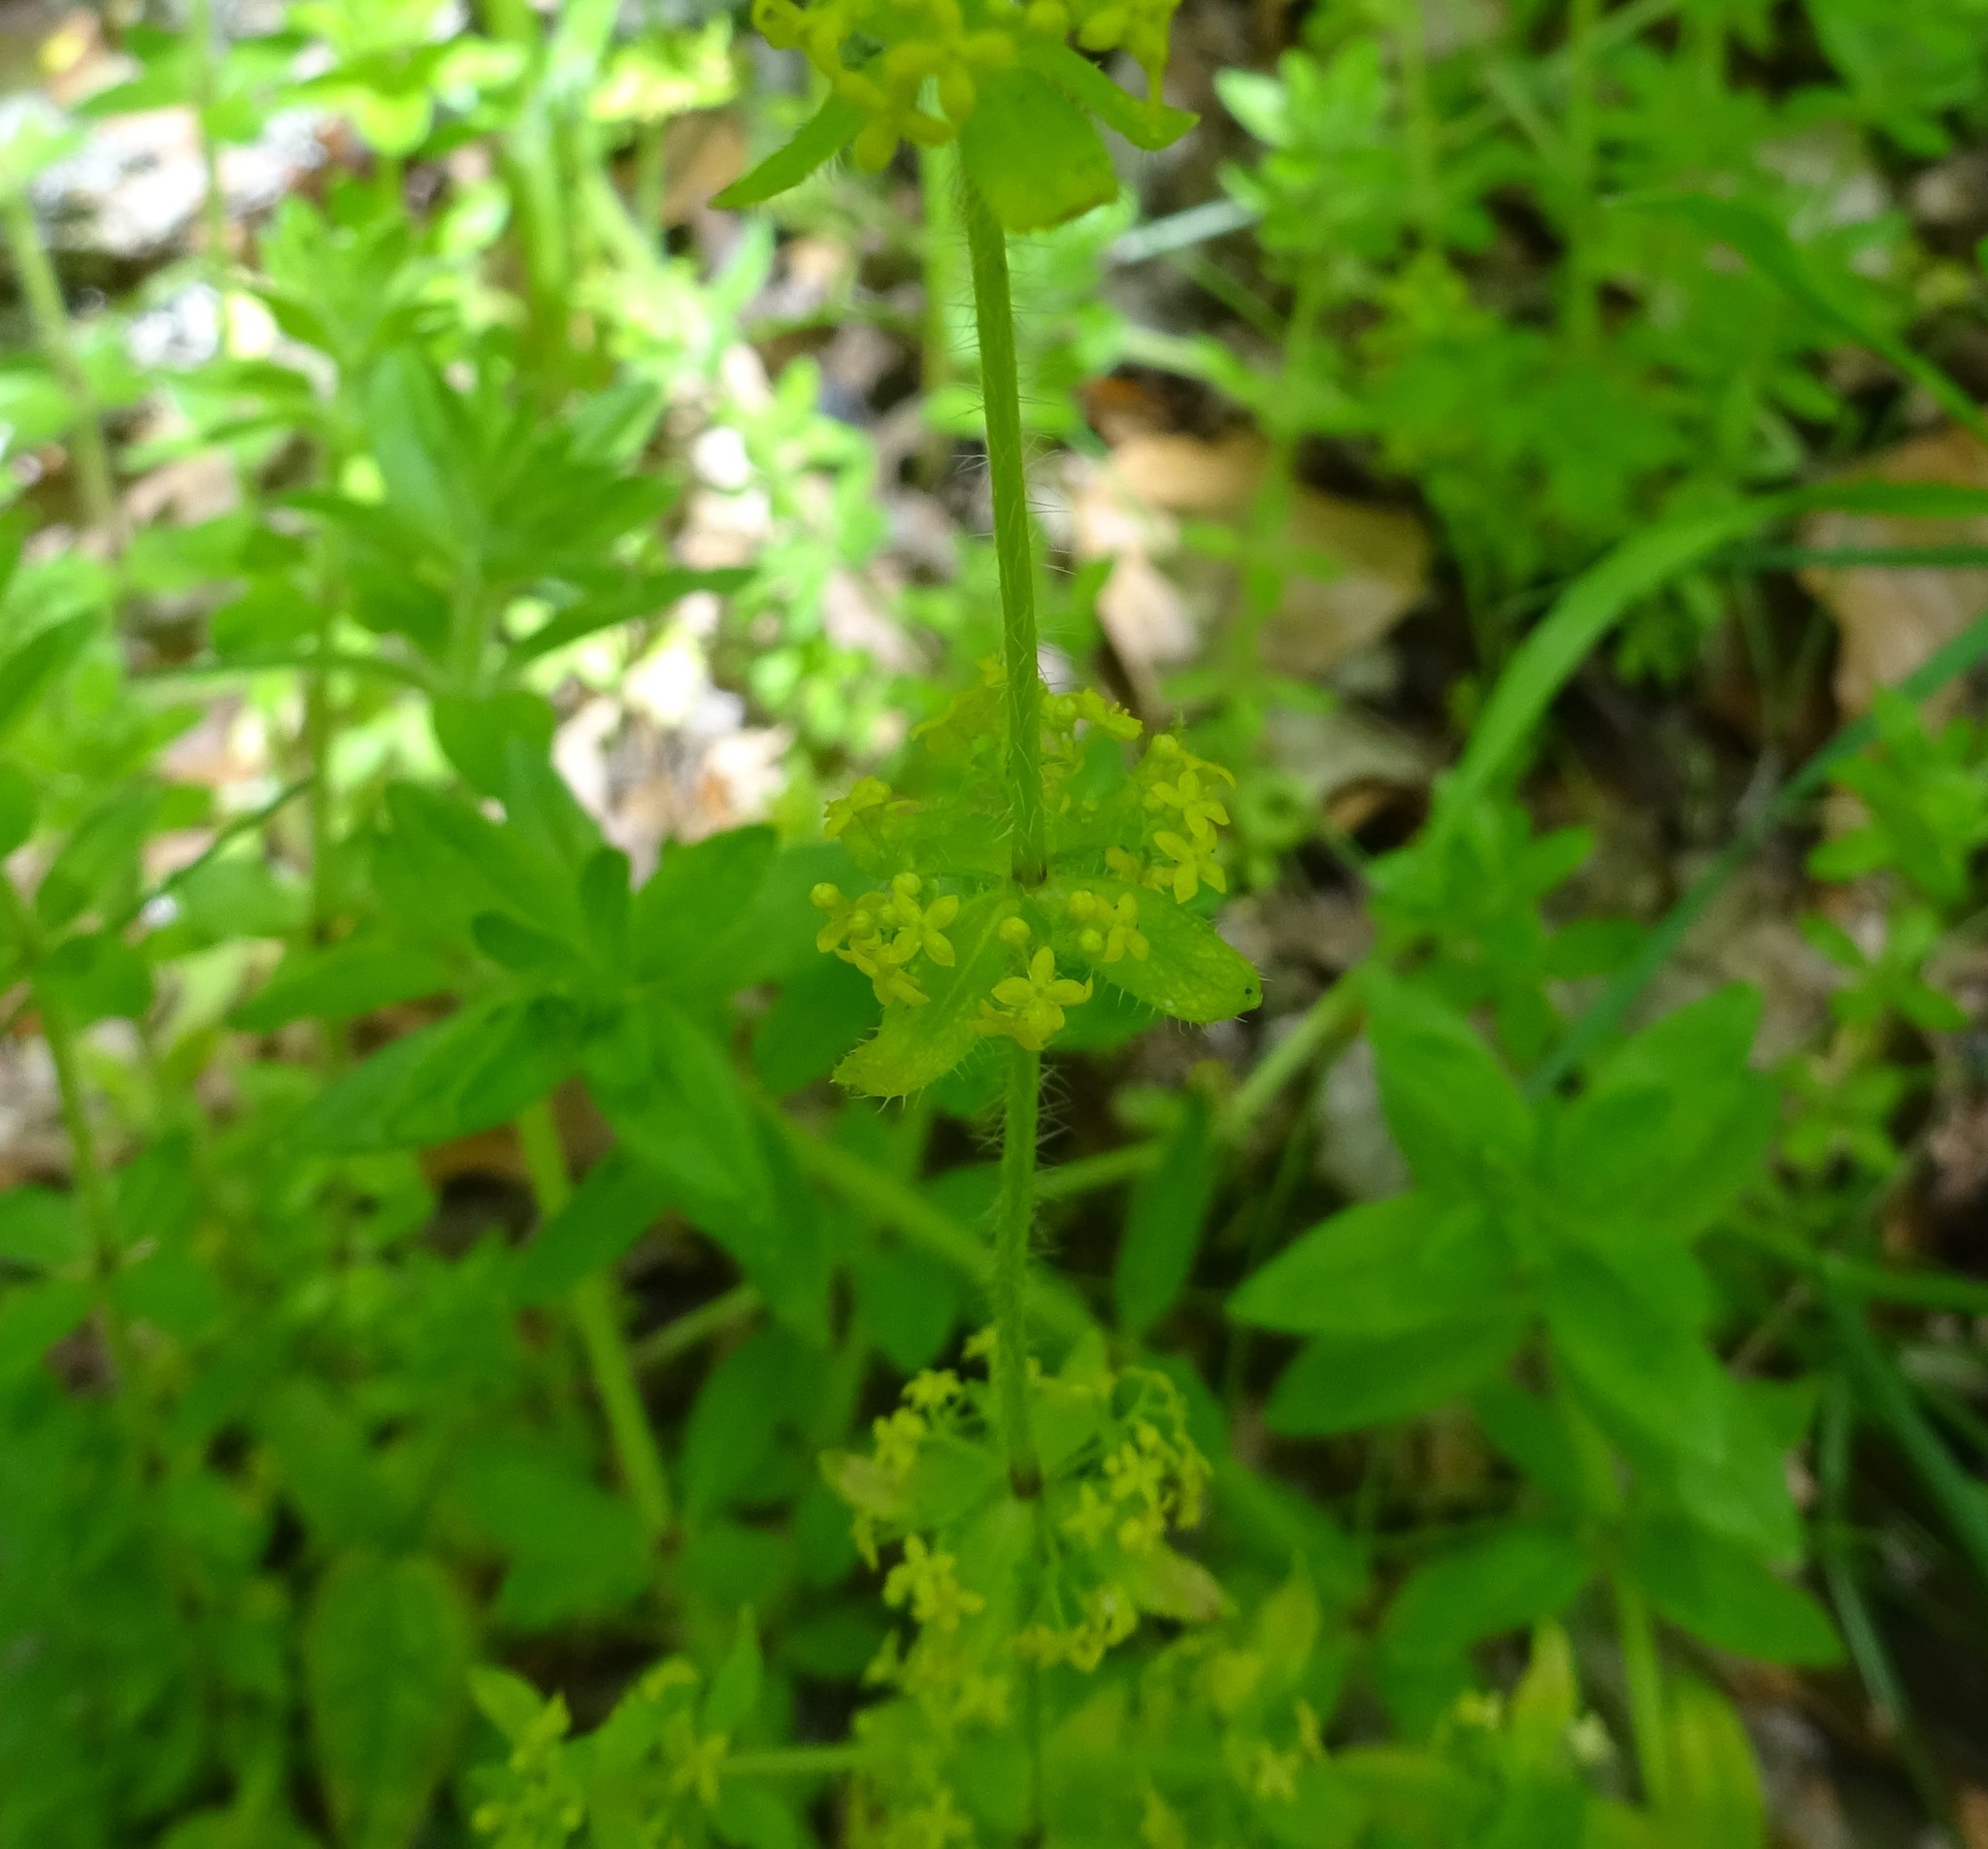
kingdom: Plantae
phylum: Tracheophyta
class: Magnoliopsida
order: Gentianales
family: Rubiaceae
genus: Cruciata
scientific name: Cruciata laevipes
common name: Crosswort
